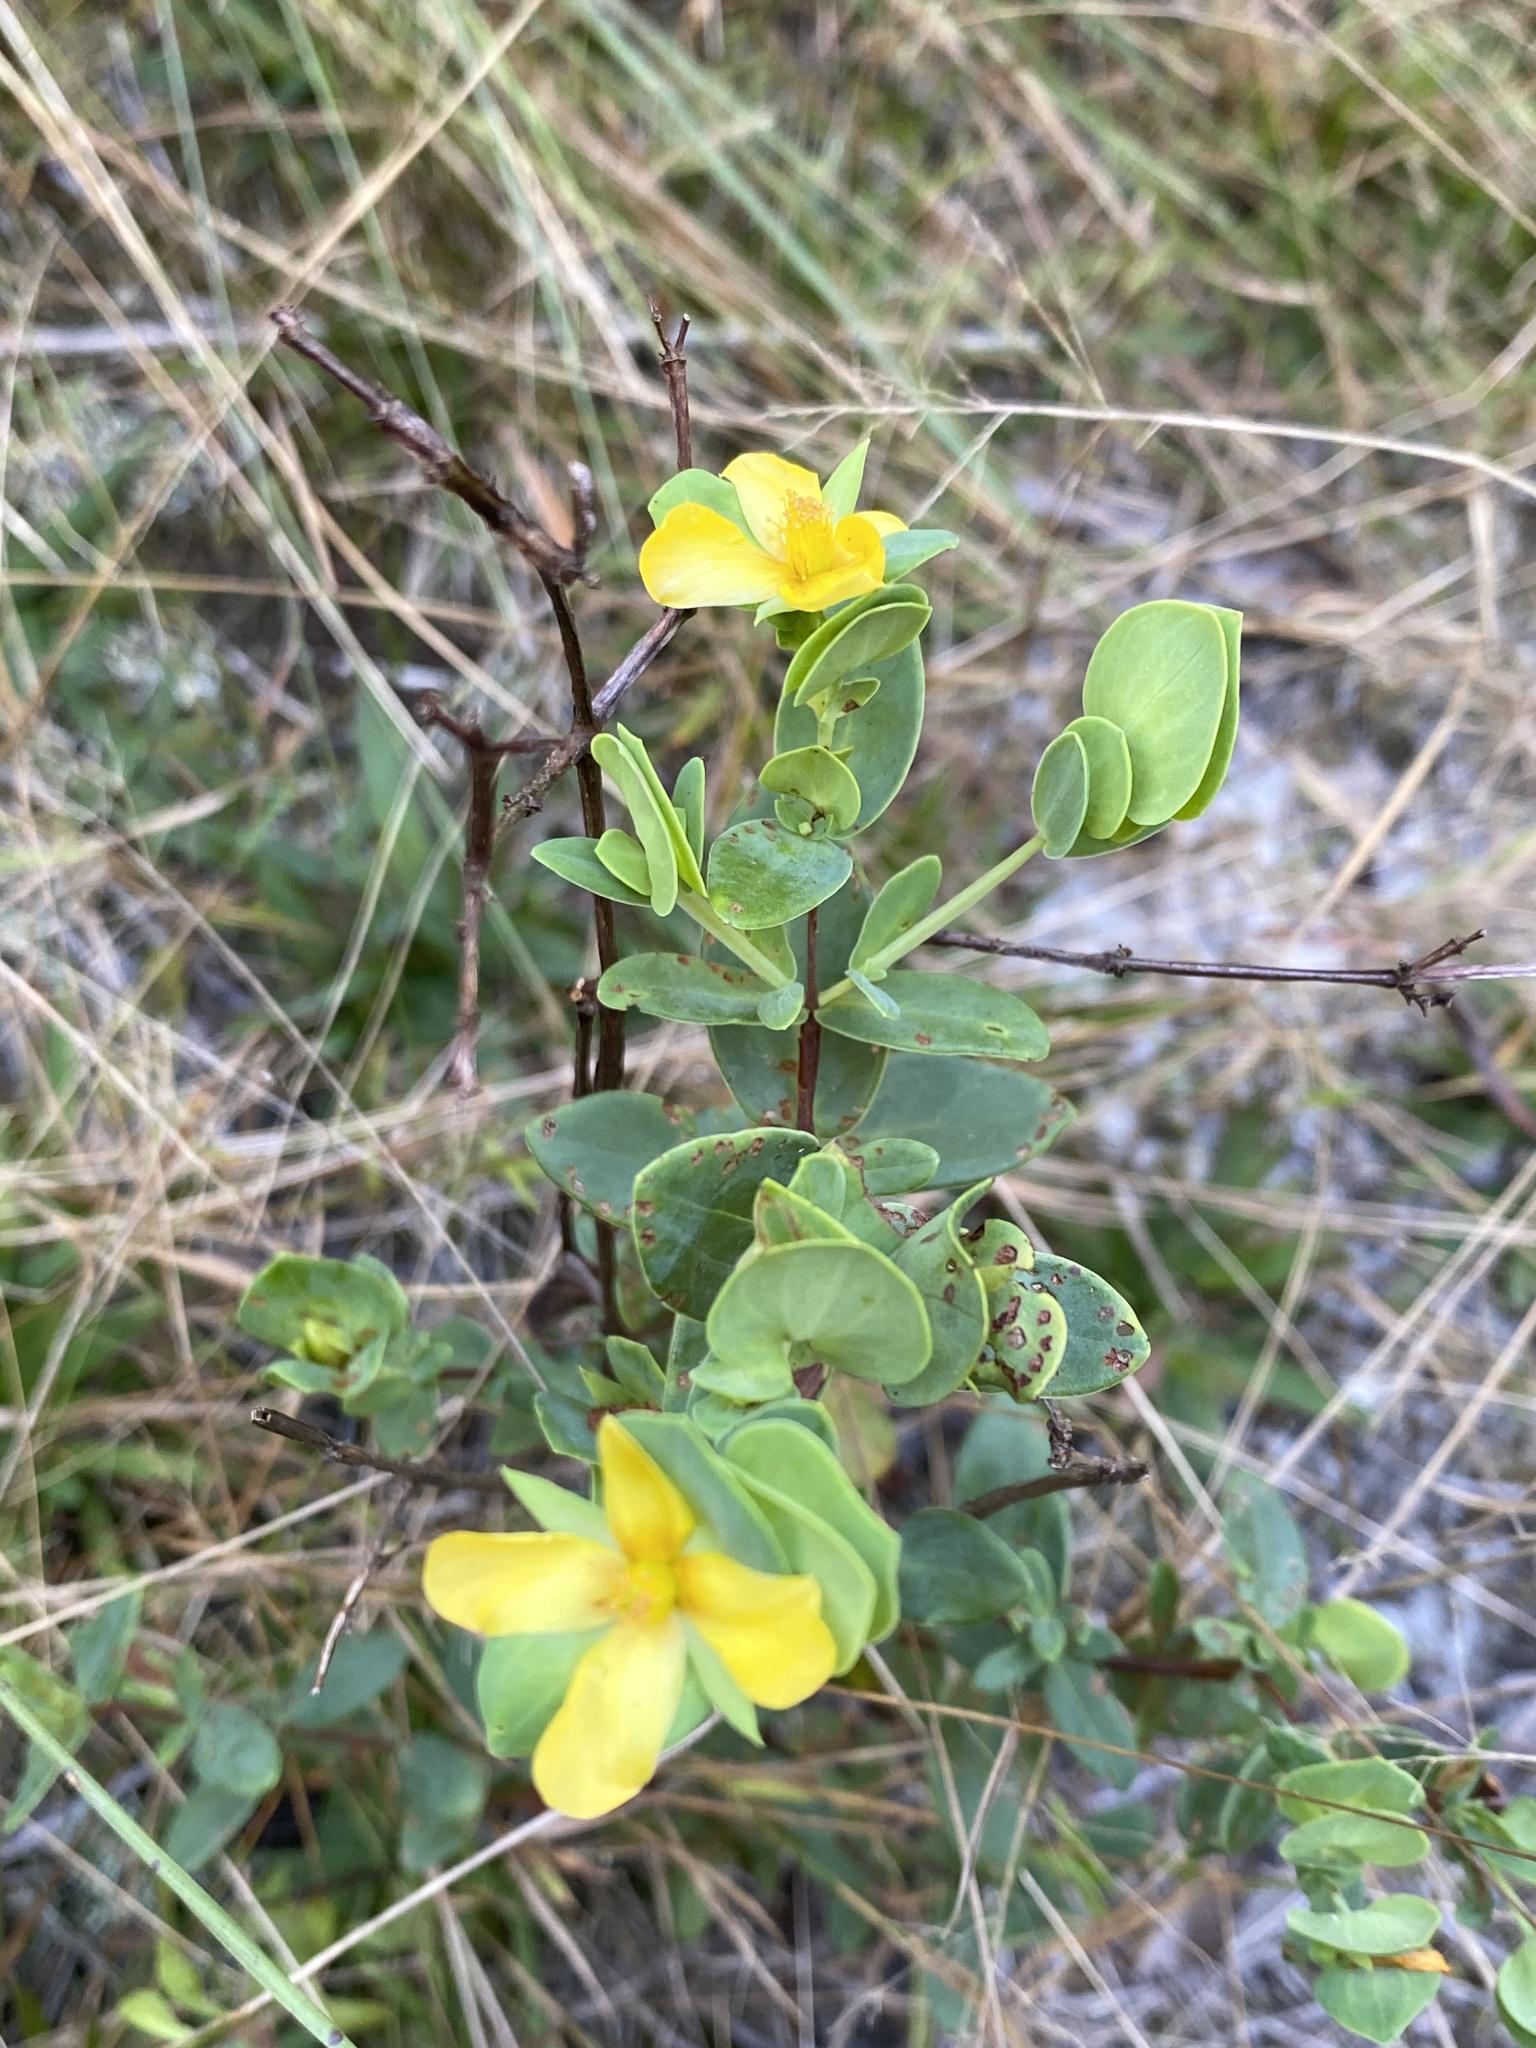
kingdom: Plantae
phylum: Tracheophyta
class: Magnoliopsida
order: Malpighiales
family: Hypericaceae
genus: Hypericum
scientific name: Hypericum crux-andreae
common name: St.-peter's-wort
